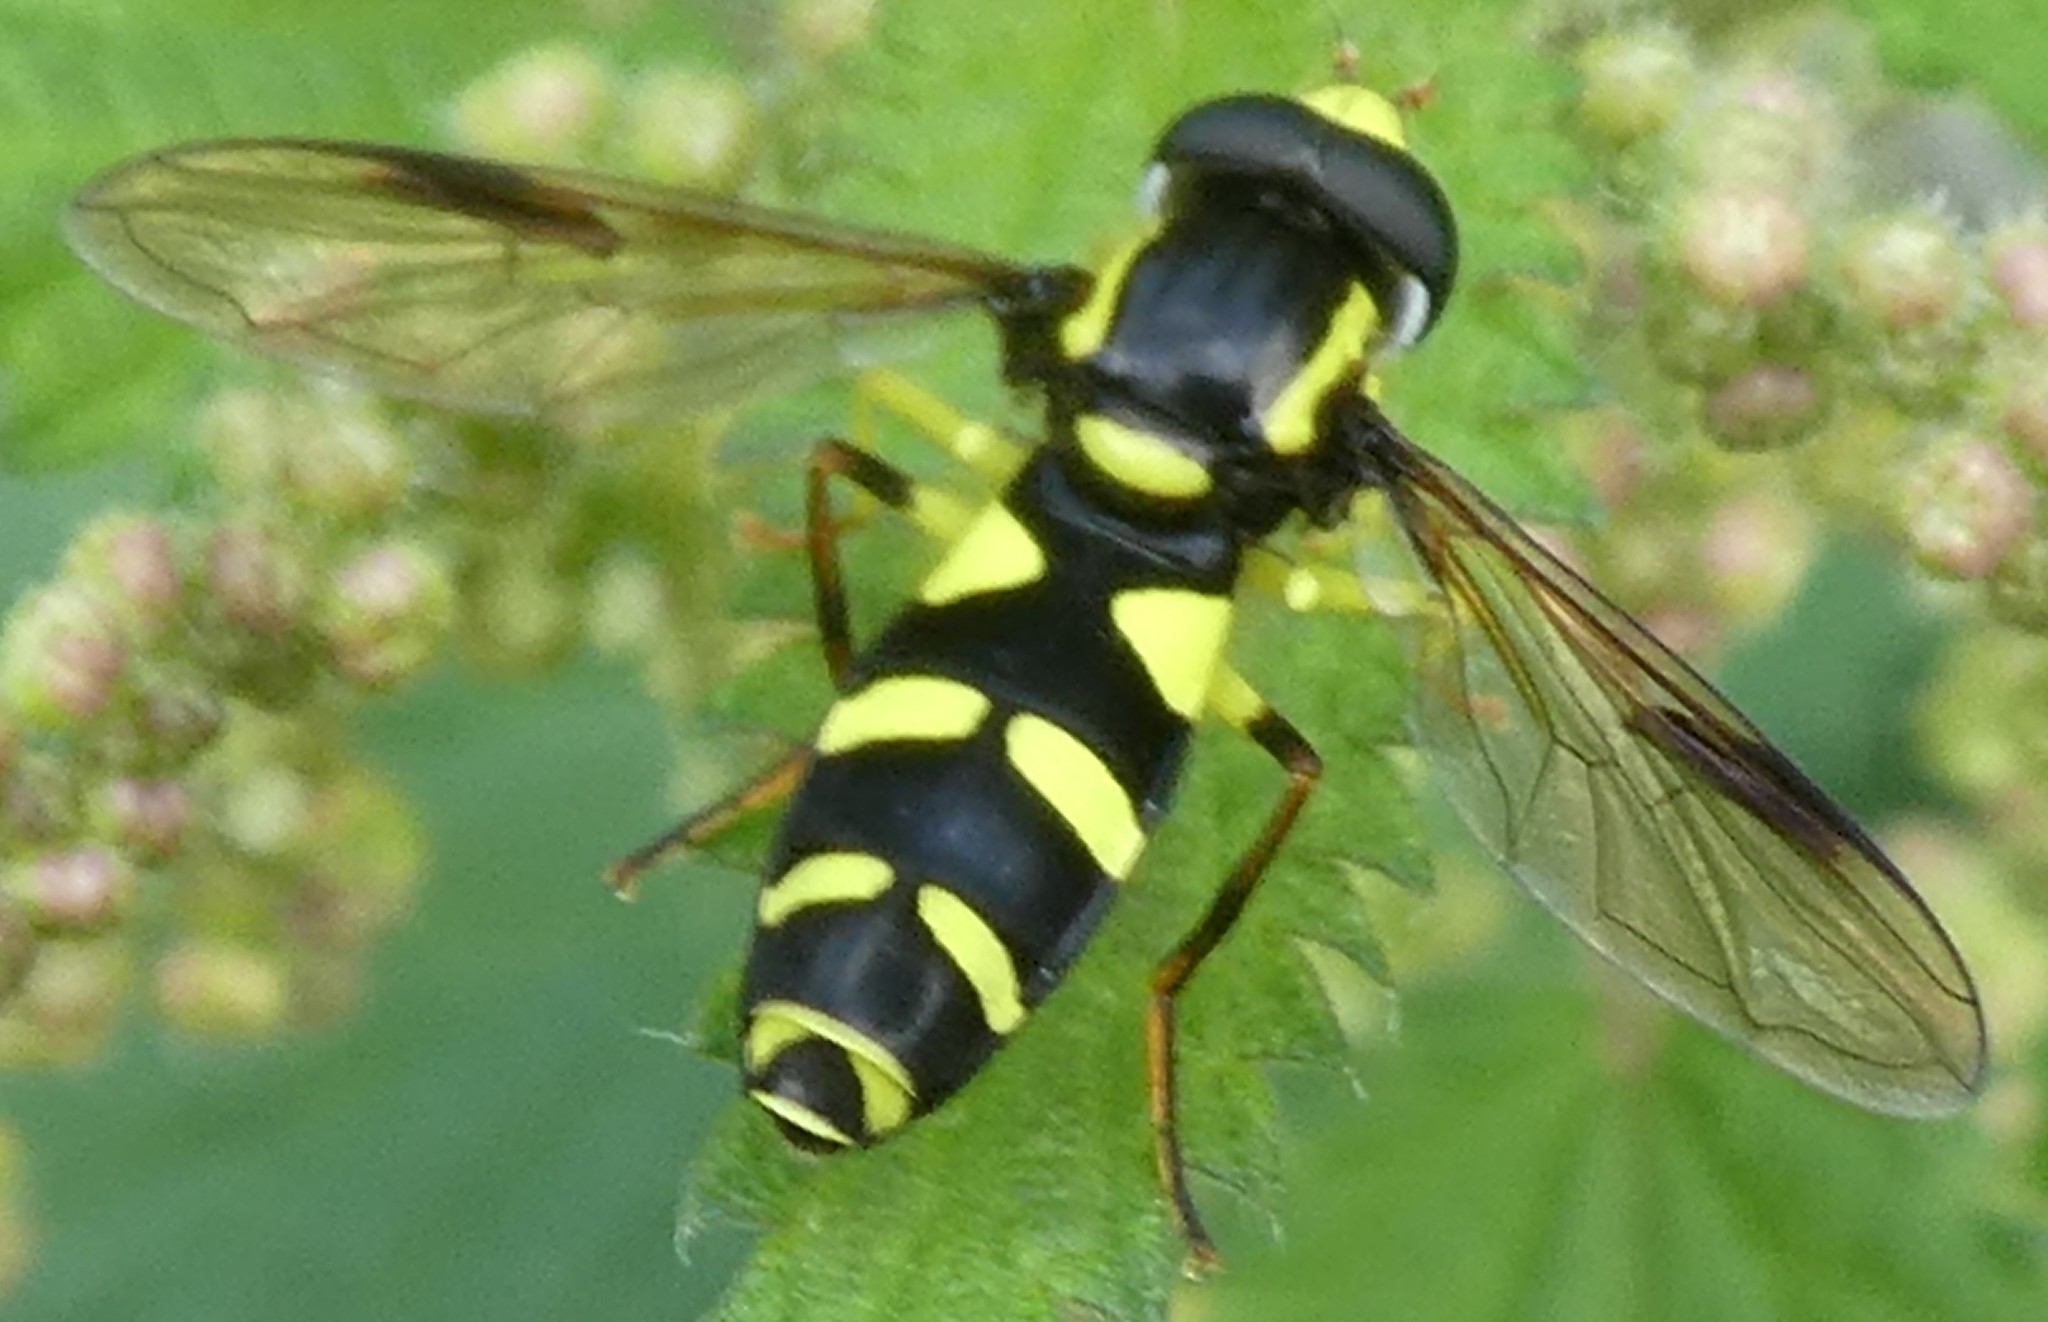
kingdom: Animalia
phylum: Arthropoda
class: Insecta
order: Diptera
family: Syrphidae
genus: Xanthogramma
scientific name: Xanthogramma
